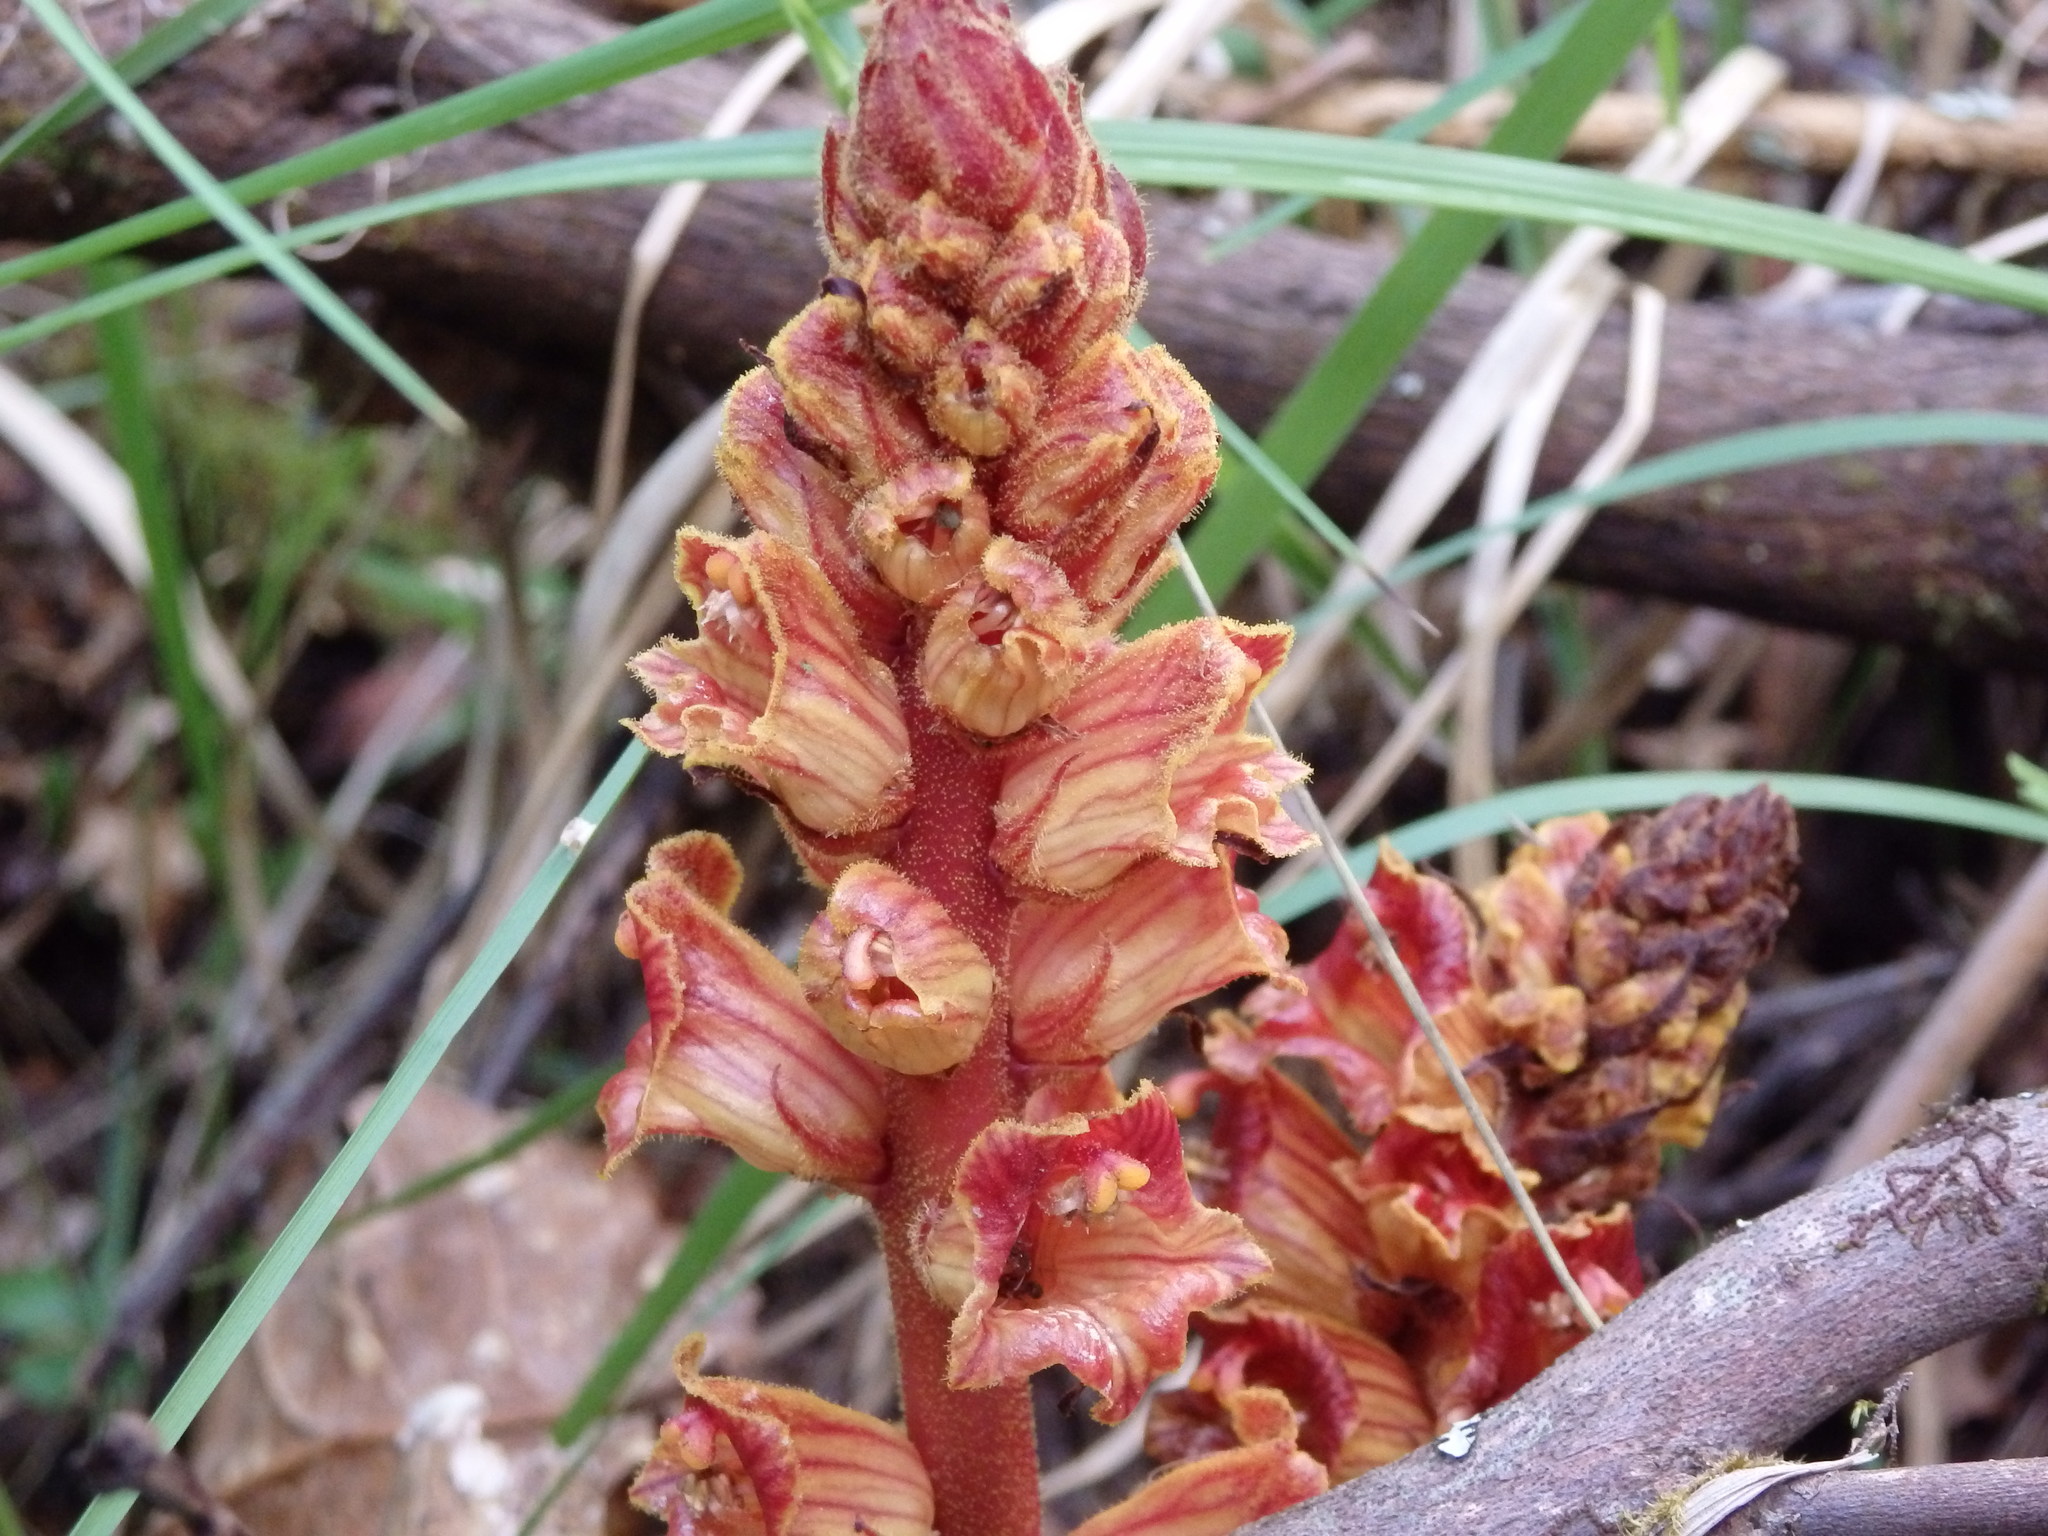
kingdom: Plantae
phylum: Tracheophyta
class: Magnoliopsida
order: Lamiales
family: Orobanchaceae
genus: Orobanche
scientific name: Orobanche gracilis
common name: Slender broomrape
